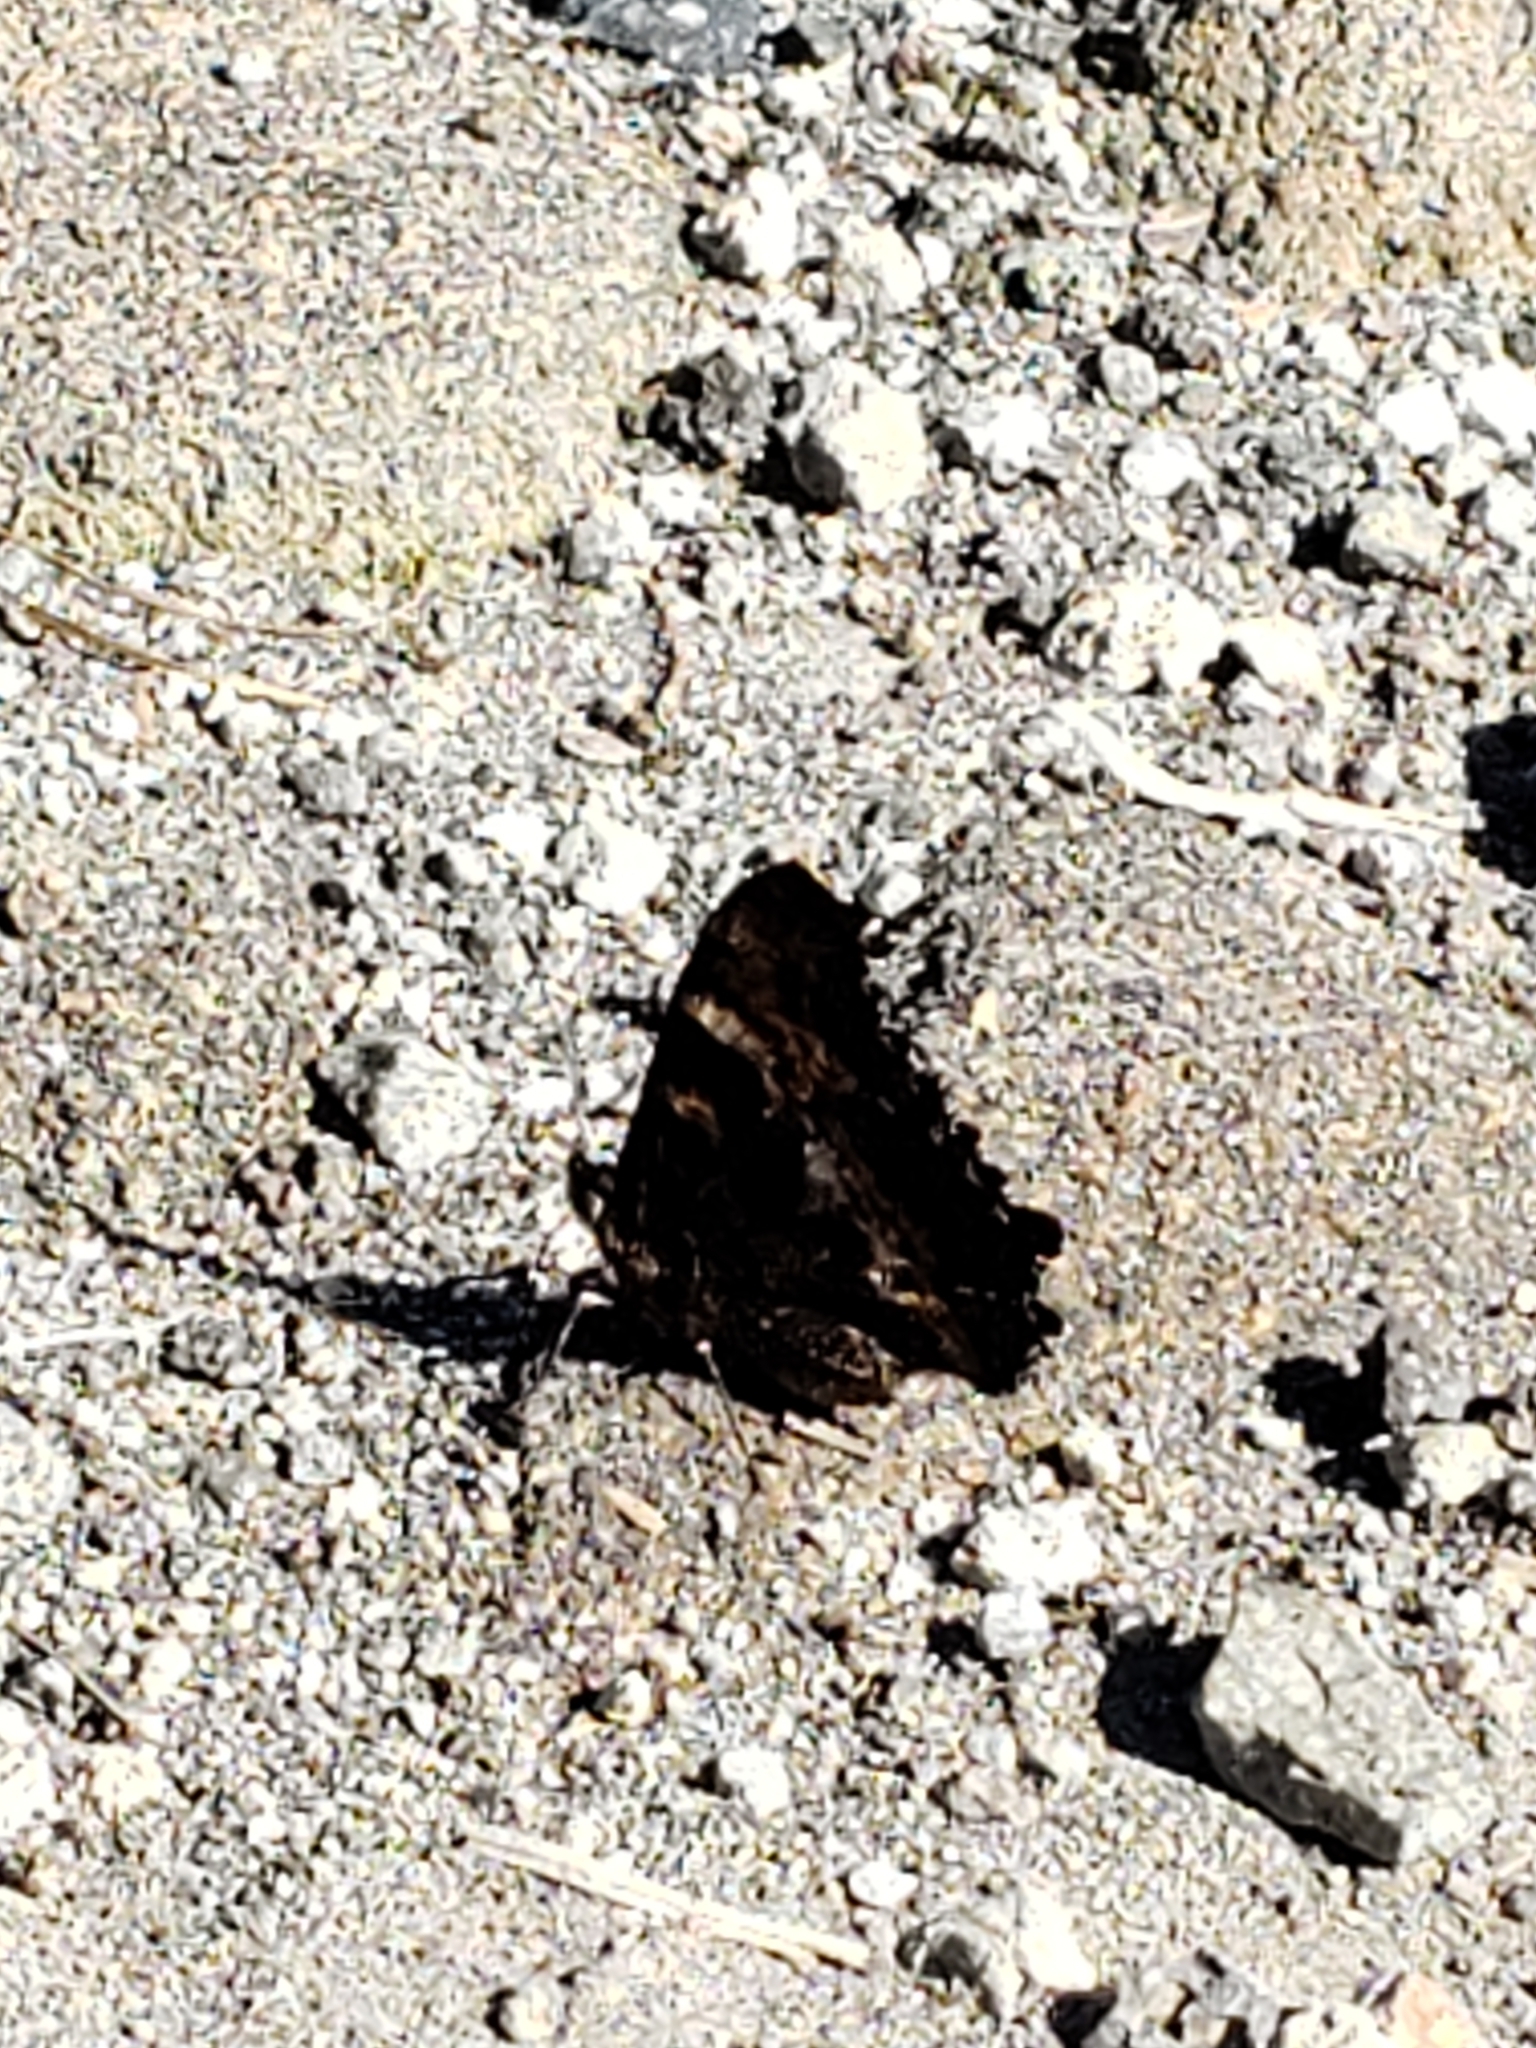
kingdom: Animalia
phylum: Arthropoda
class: Insecta
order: Lepidoptera
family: Nymphalidae
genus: Nymphalis
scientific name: Nymphalis californica
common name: California tortoiseshell
